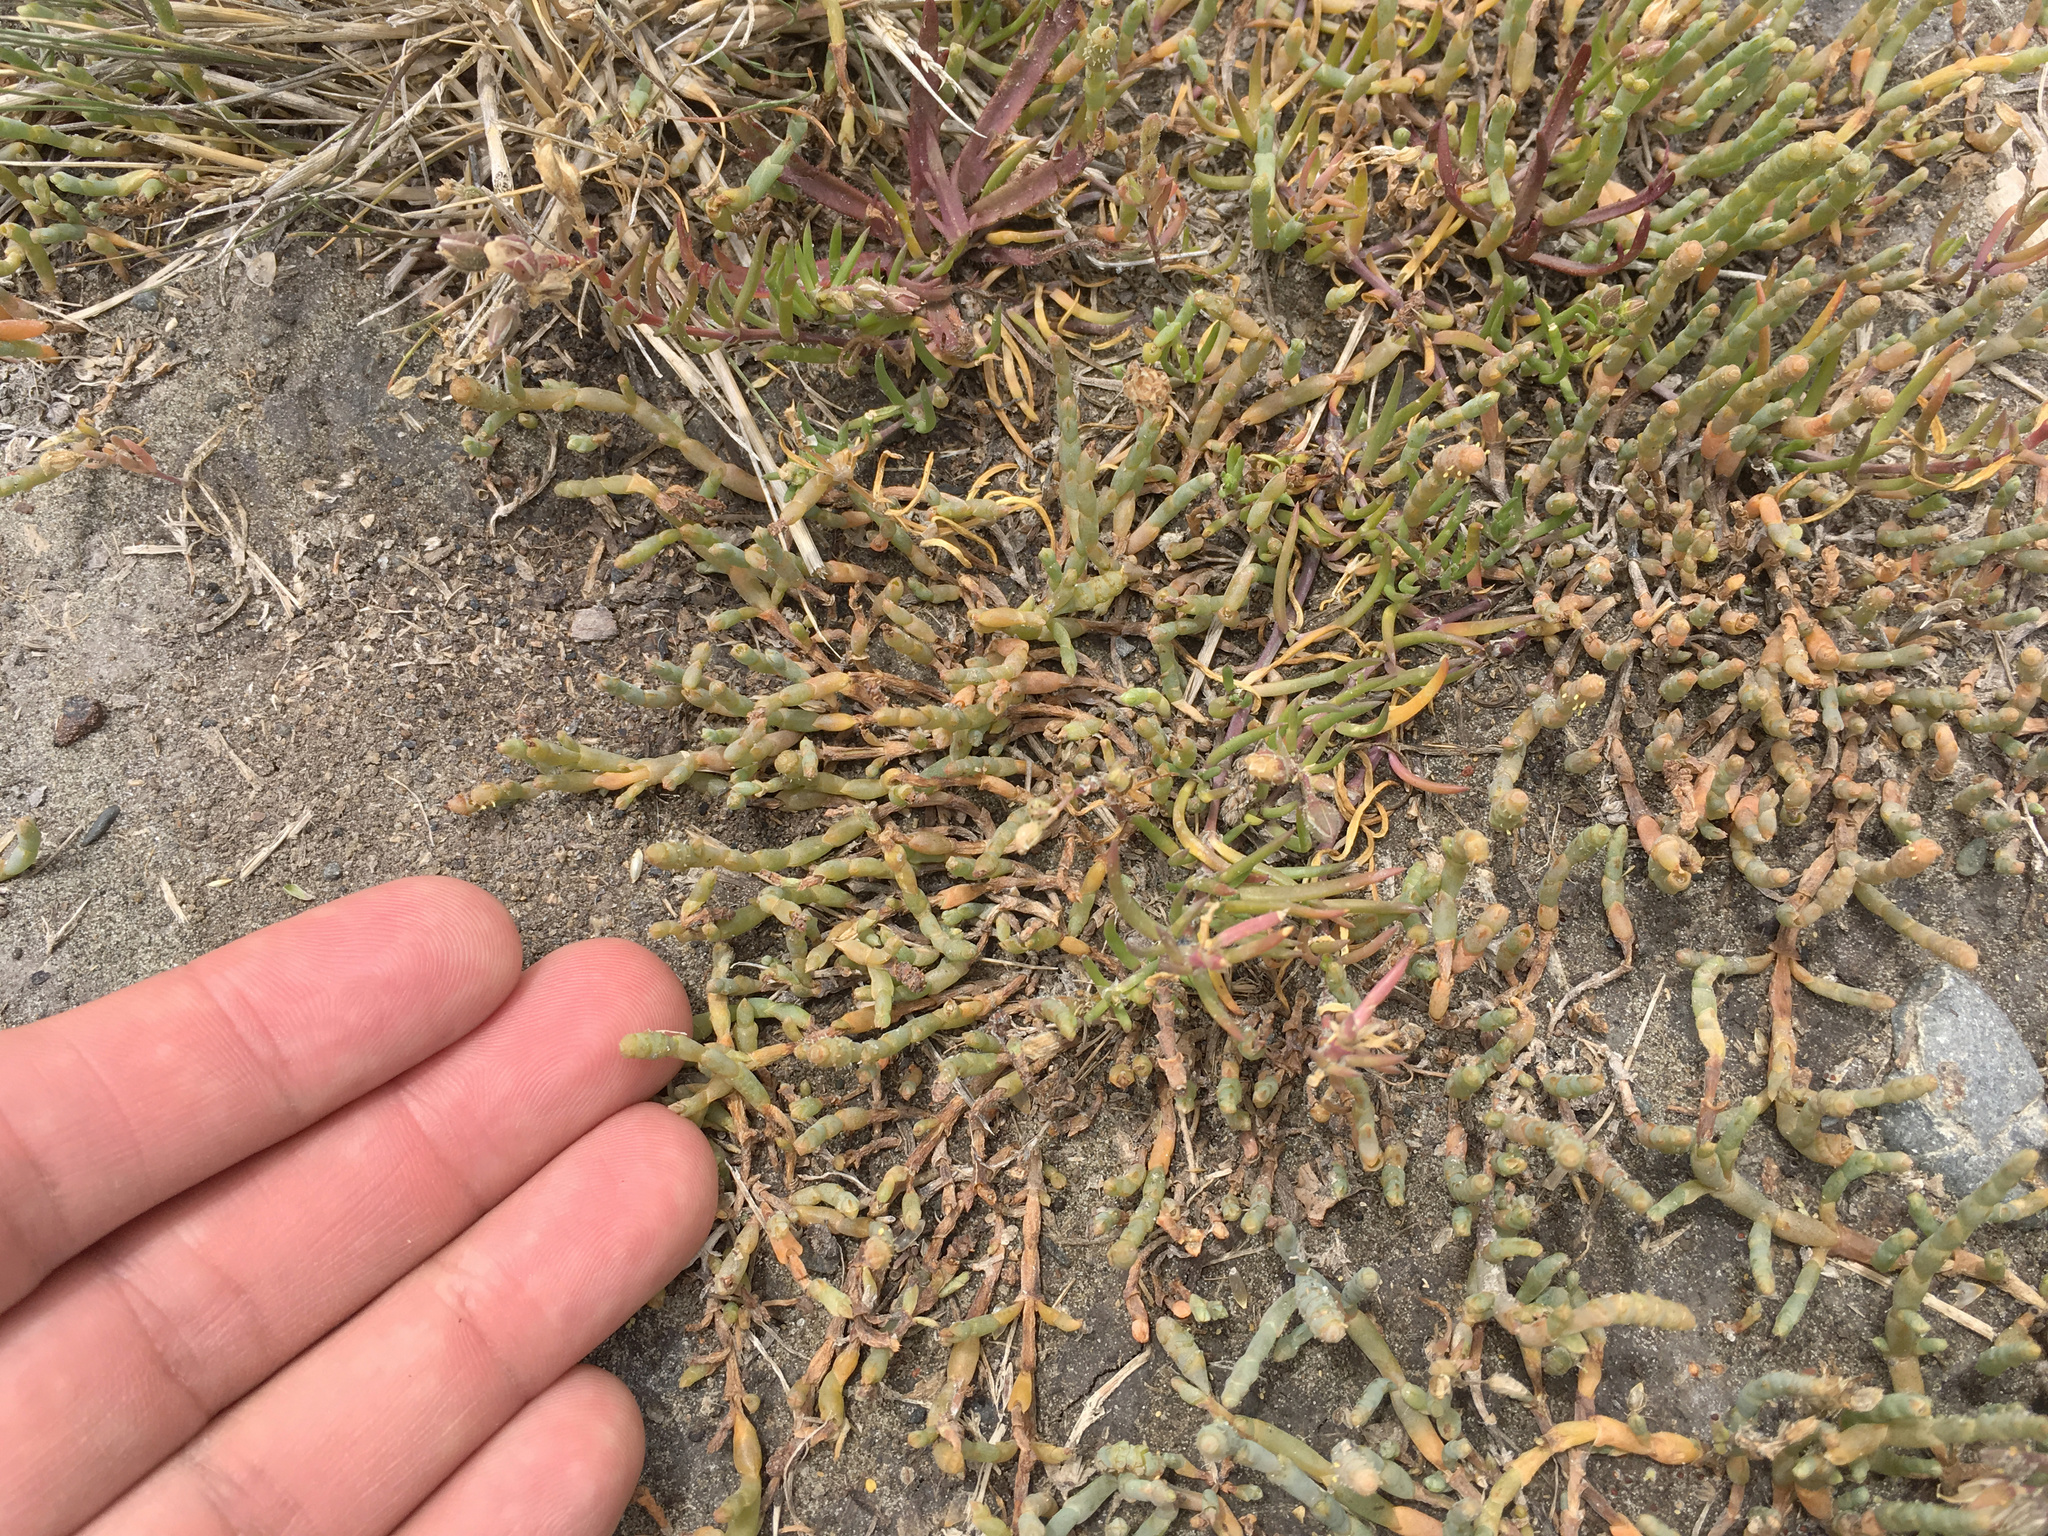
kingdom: Plantae
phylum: Tracheophyta
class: Magnoliopsida
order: Caryophyllales
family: Amaranthaceae
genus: Salicornia
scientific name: Salicornia quinqueflora
